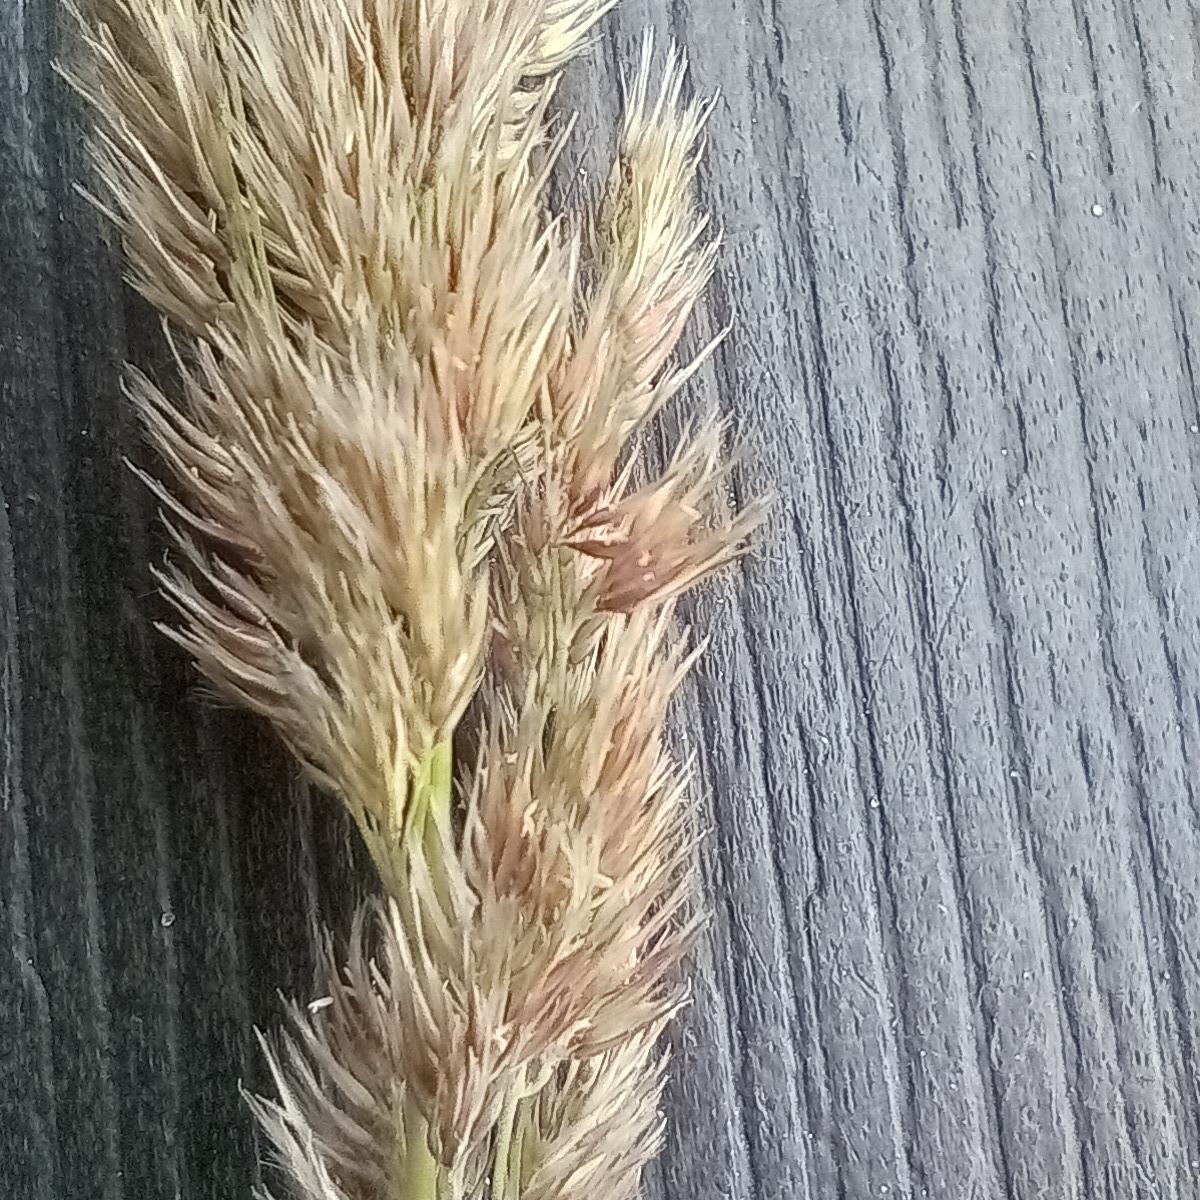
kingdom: Plantae
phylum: Tracheophyta
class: Liliopsida
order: Poales
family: Poaceae
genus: Calamagrostis
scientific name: Calamagrostis epigejos
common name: Wood small-reed
